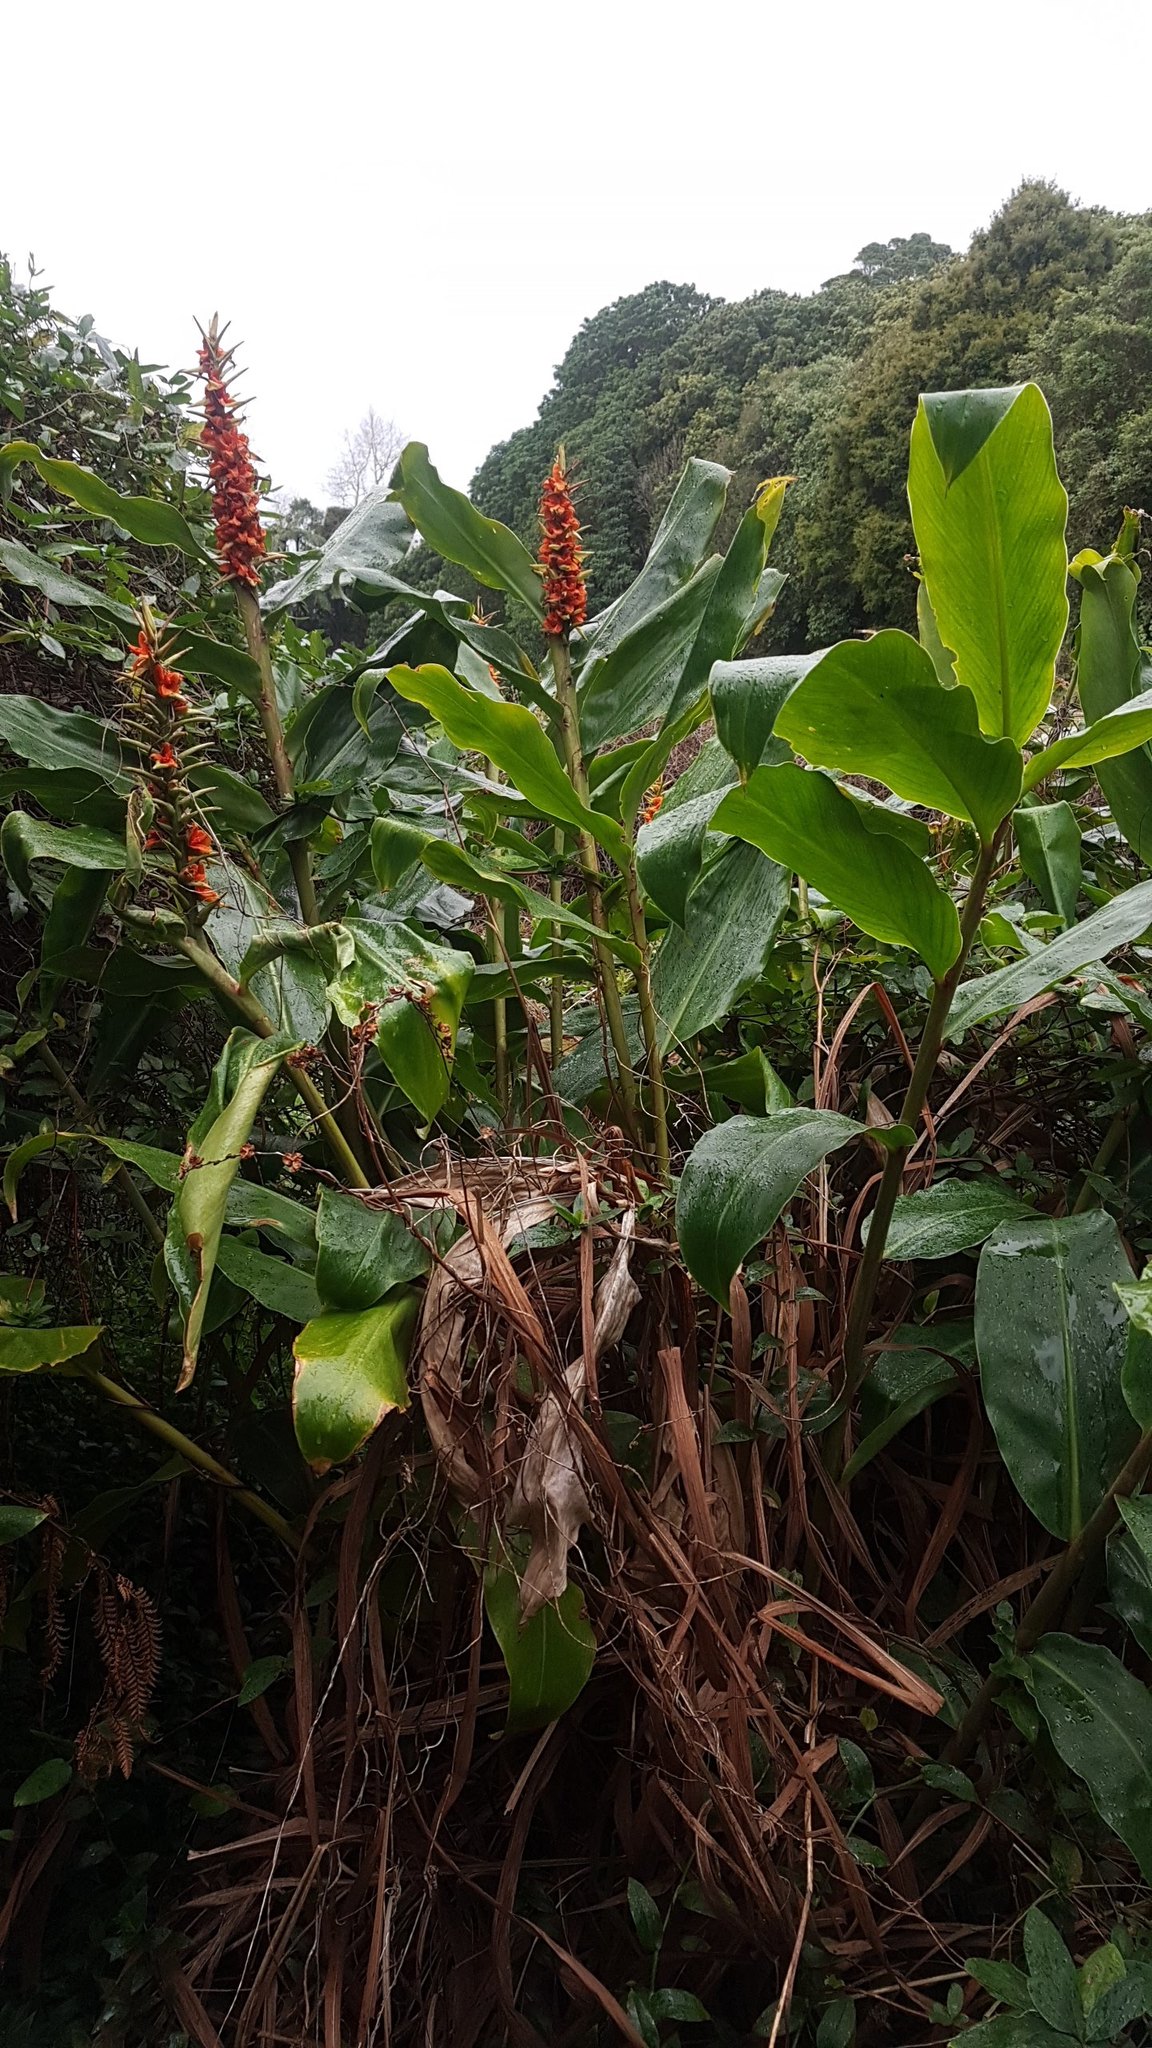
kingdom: Plantae
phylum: Tracheophyta
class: Liliopsida
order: Zingiberales
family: Zingiberaceae
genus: Hedychium
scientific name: Hedychium gardnerianum
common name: Himalayan ginger
